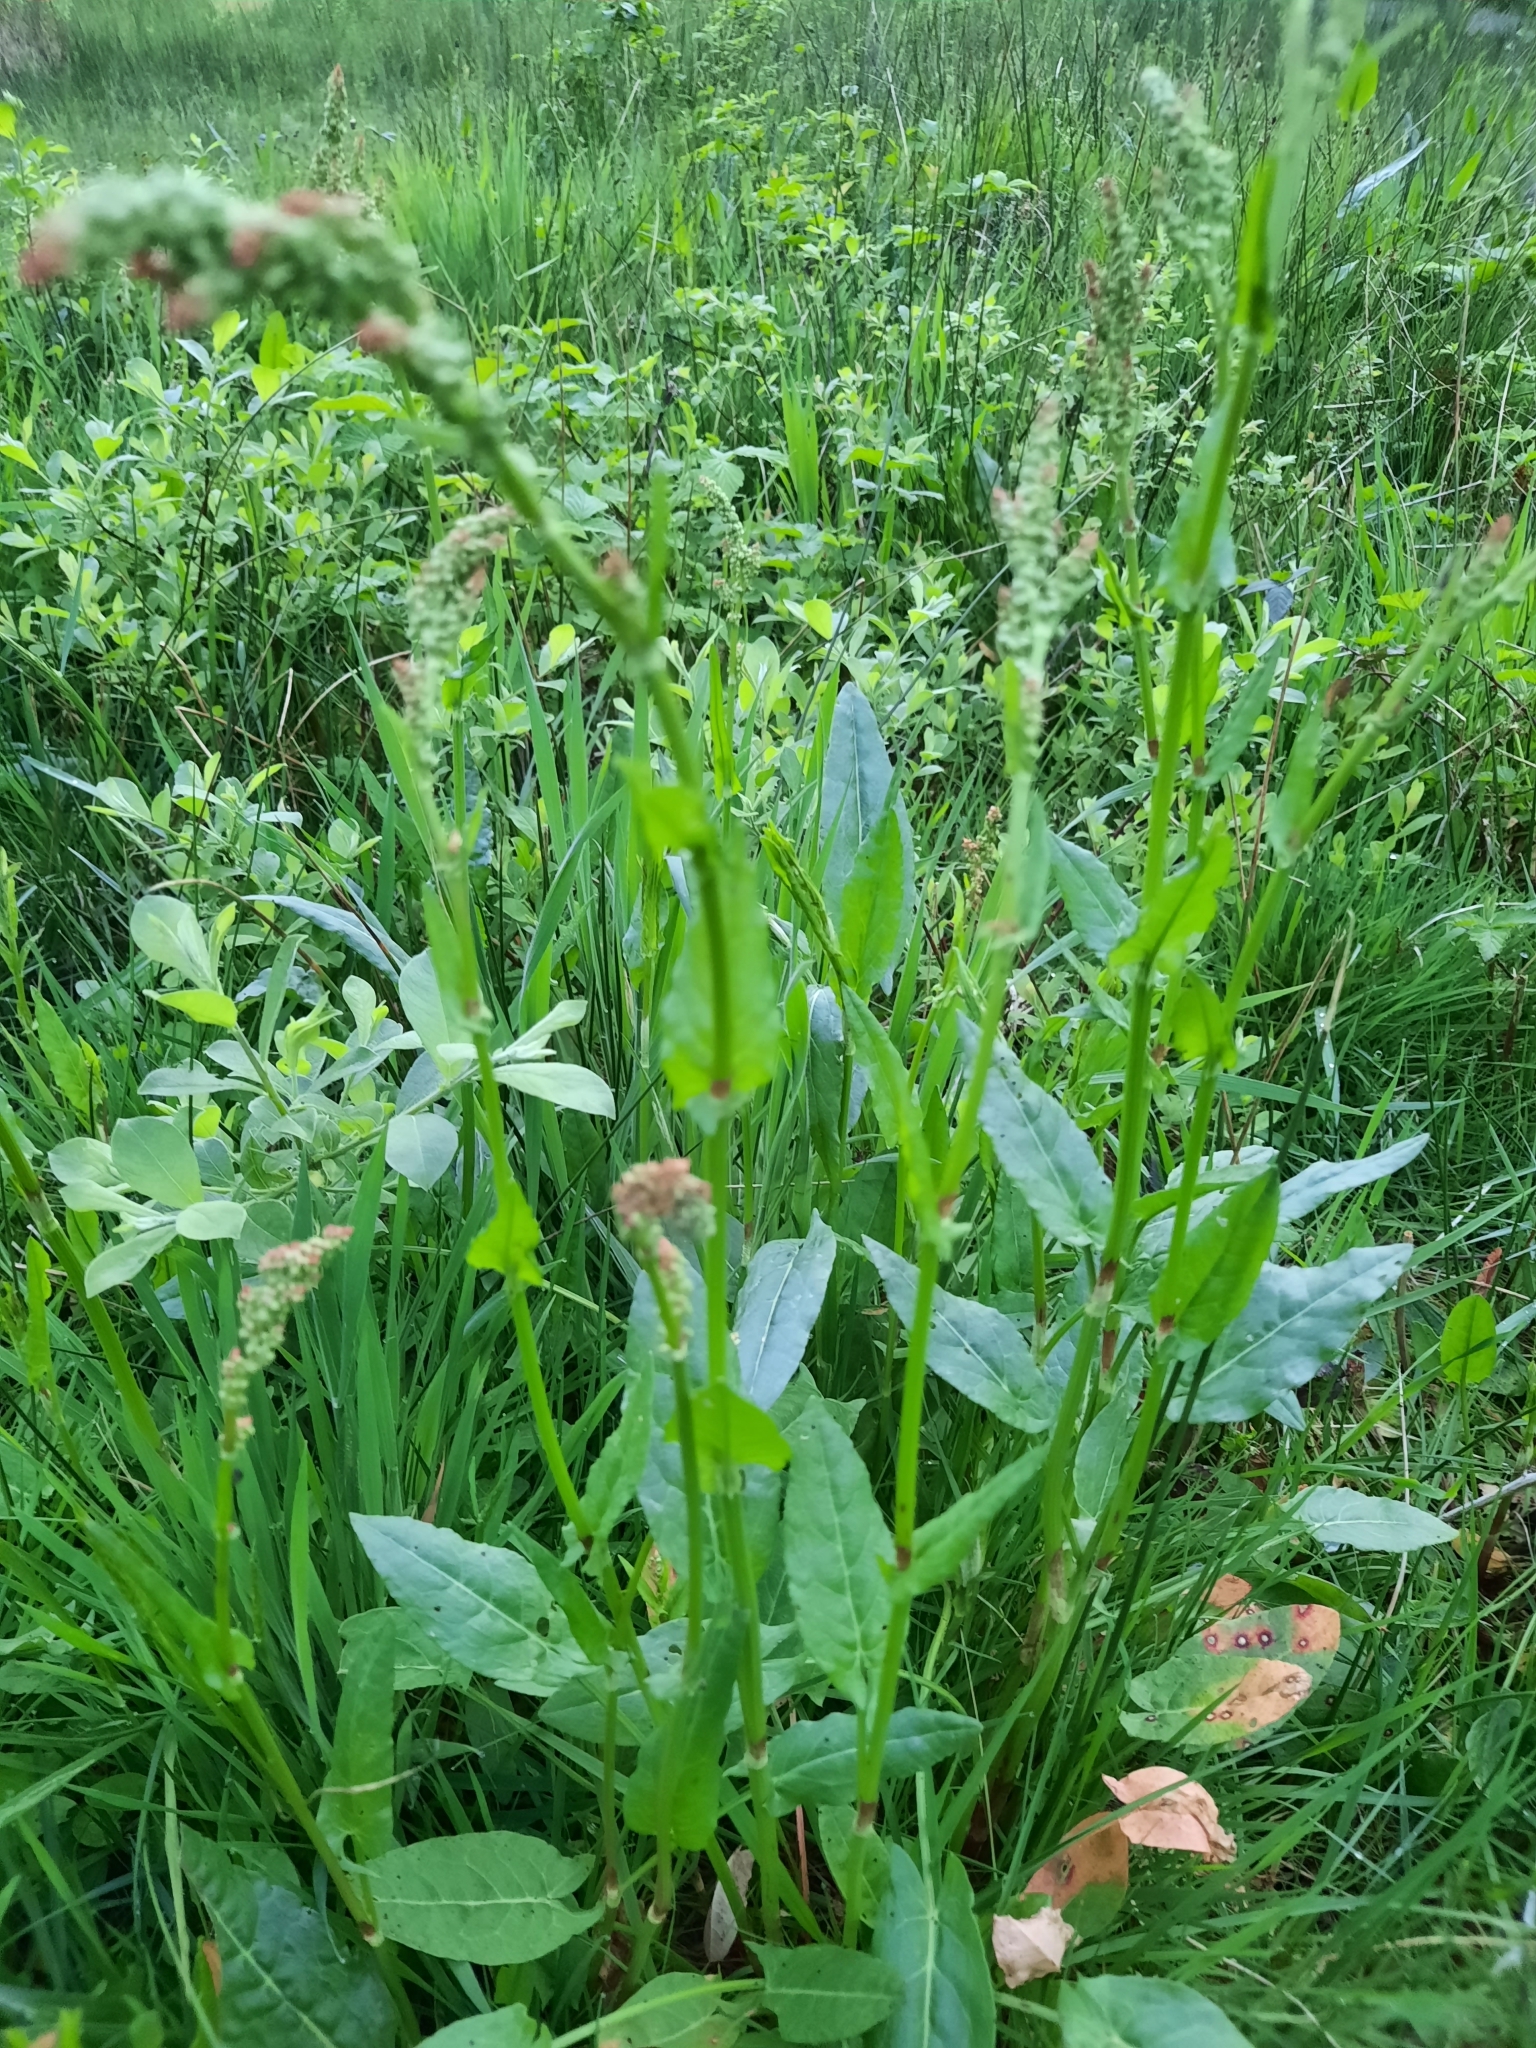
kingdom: Plantae
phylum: Tracheophyta
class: Magnoliopsida
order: Caryophyllales
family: Polygonaceae
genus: Rumex
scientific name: Rumex acetosa
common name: Garden sorrel
